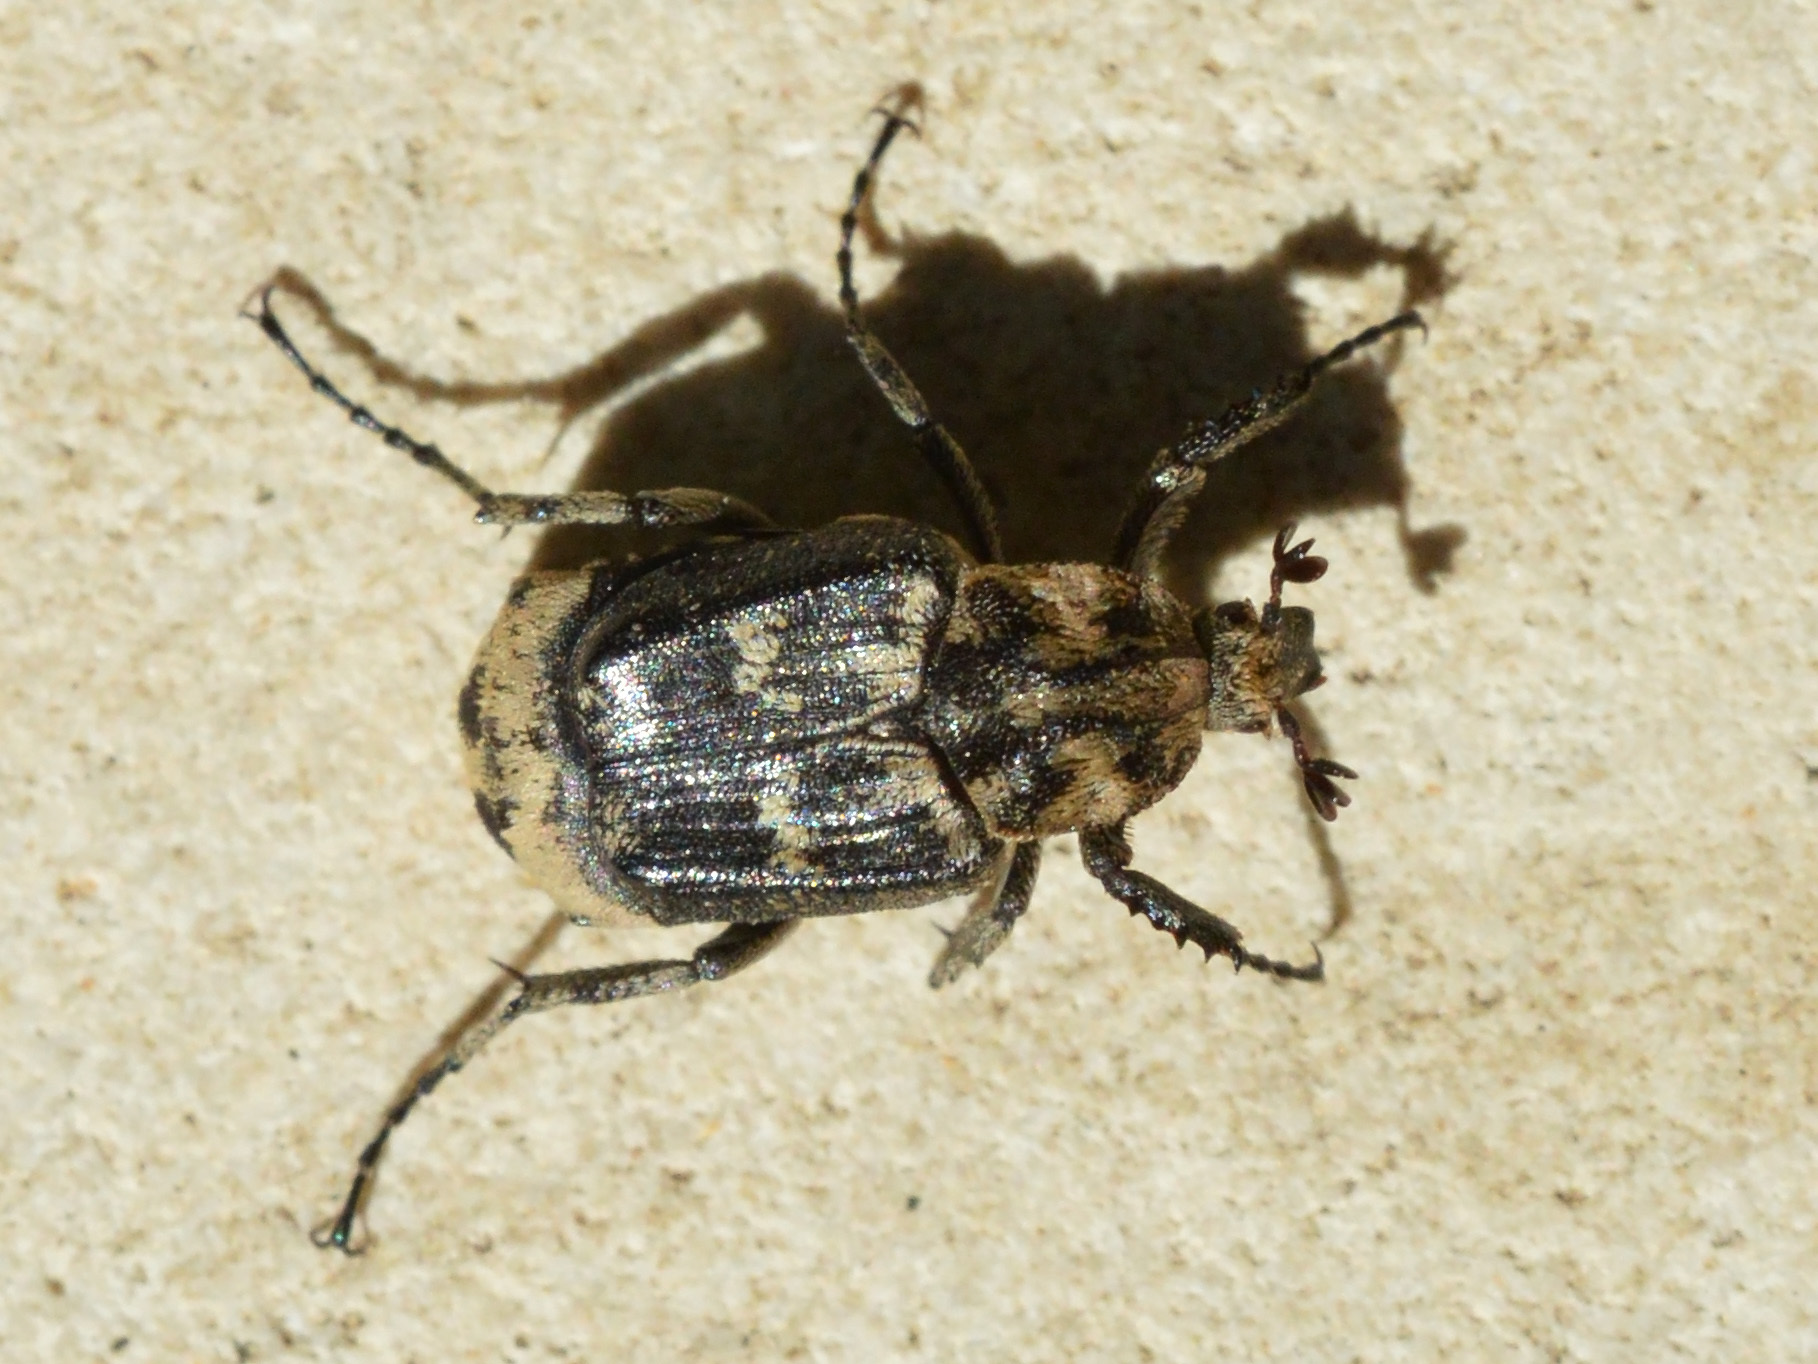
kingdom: Animalia
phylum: Arthropoda
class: Insecta
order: Coleoptera
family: Scarabaeidae
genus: Valgus
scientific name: Valgus hemipterus
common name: Bug flower chafer
